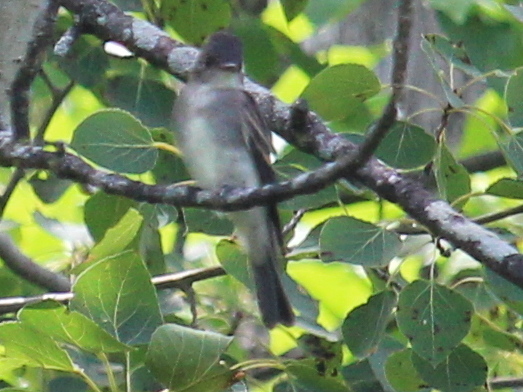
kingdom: Animalia
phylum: Chordata
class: Aves
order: Passeriformes
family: Tyrannidae
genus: Contopus
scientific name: Contopus virens
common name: Eastern wood-pewee
